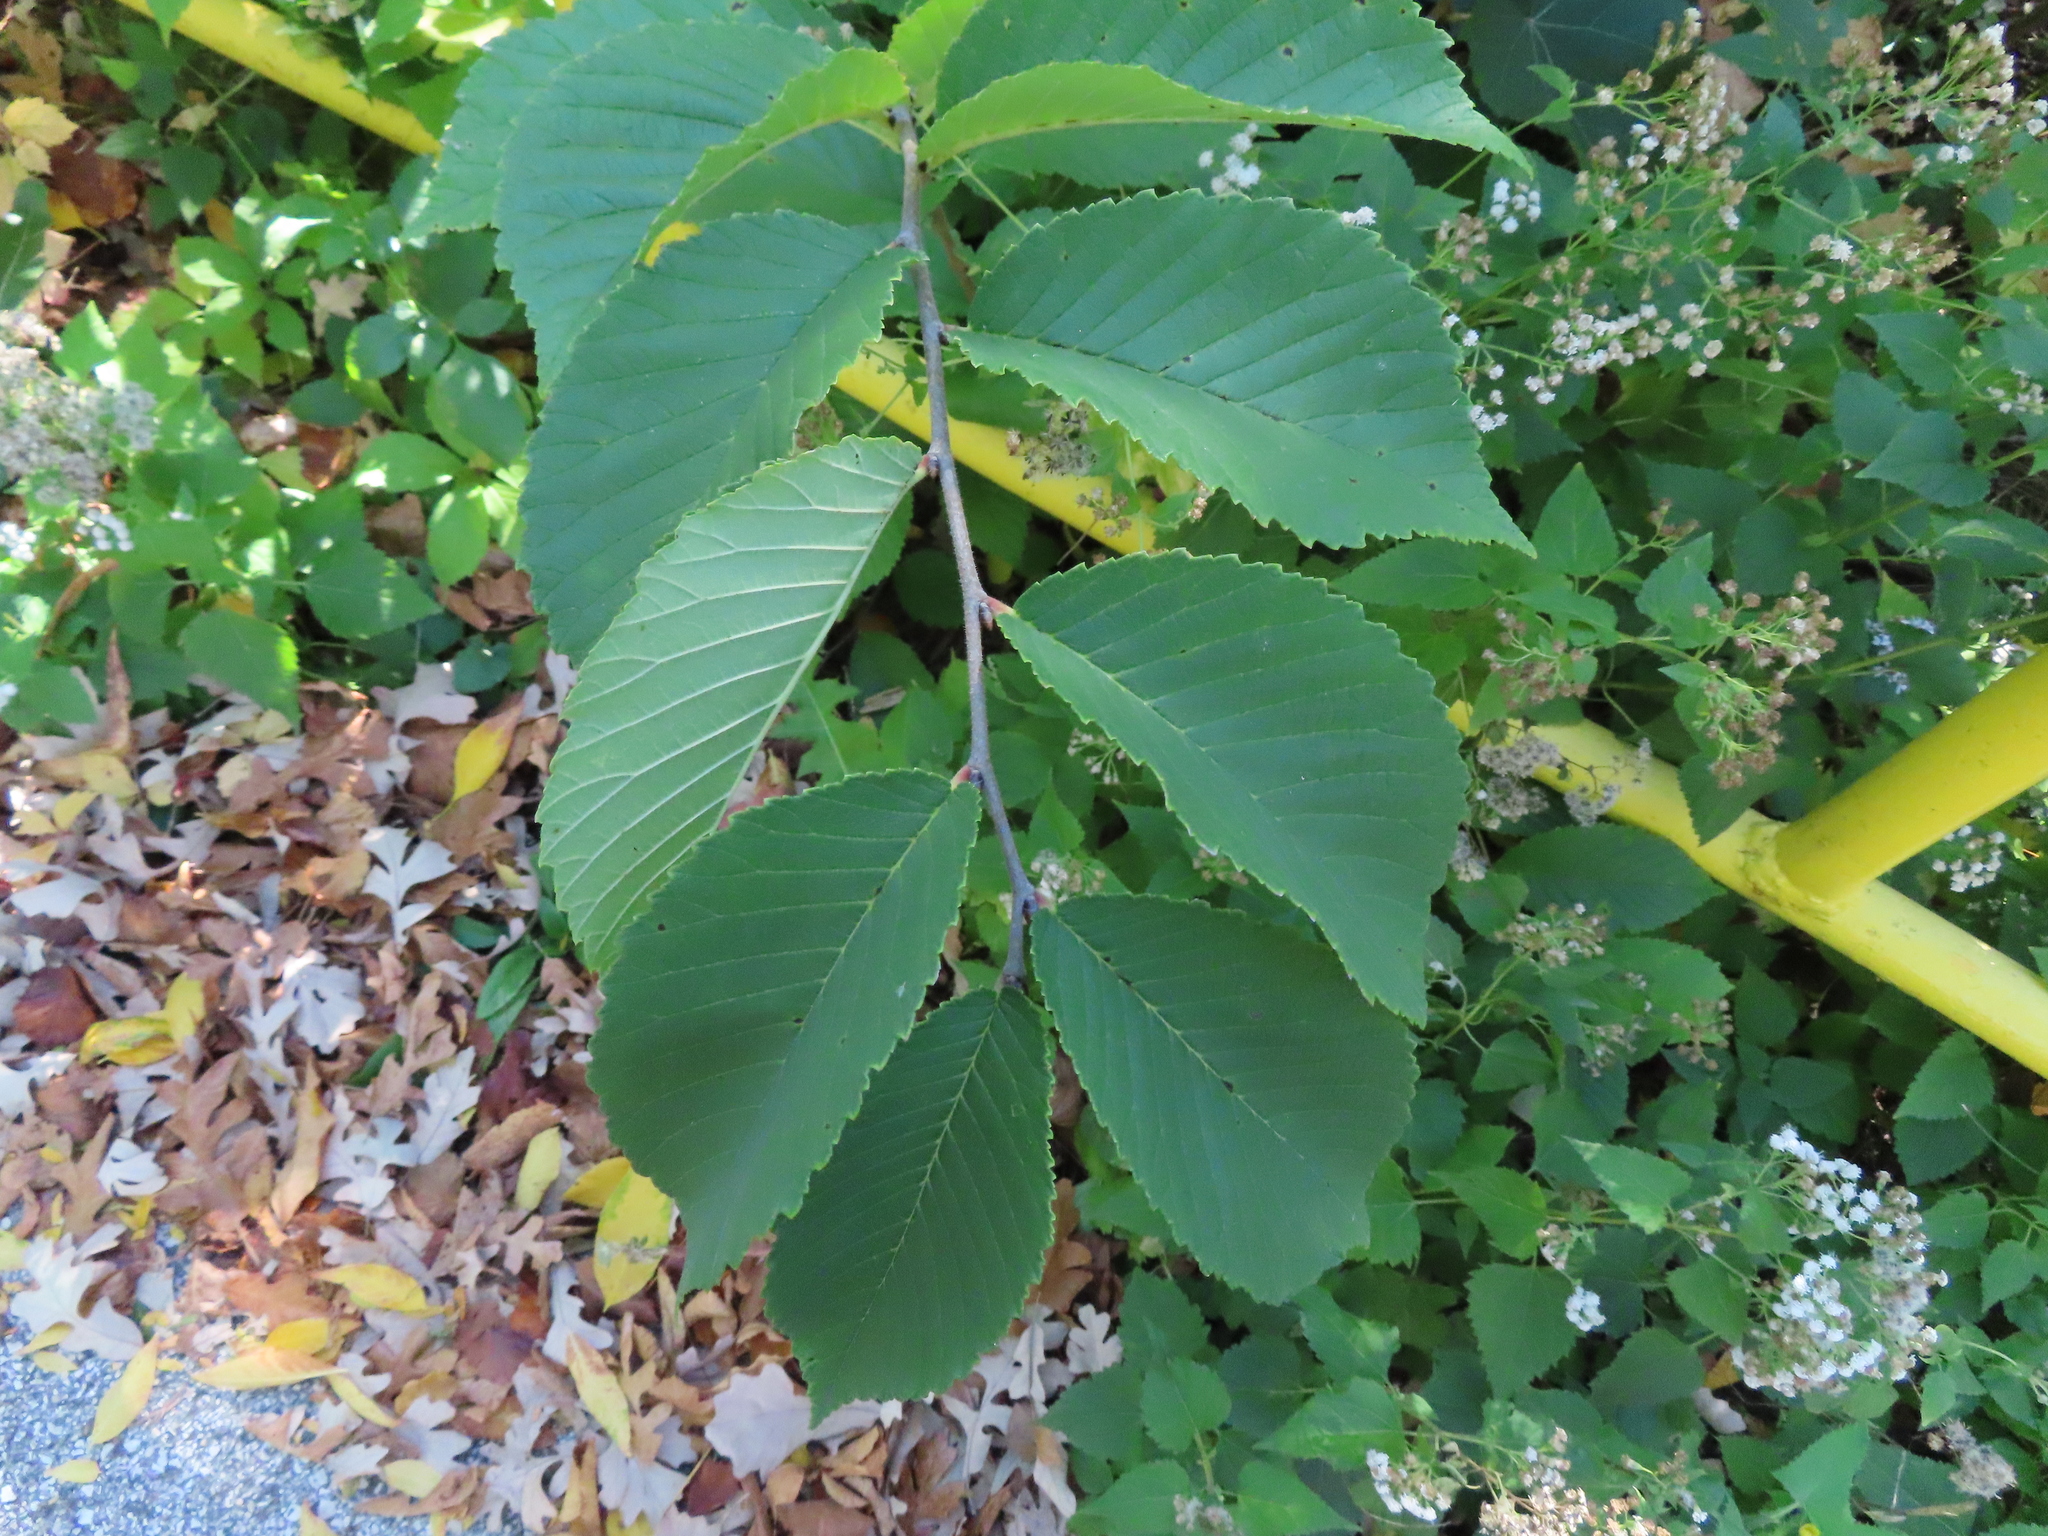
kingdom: Plantae
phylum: Tracheophyta
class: Magnoliopsida
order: Rosales
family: Ulmaceae
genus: Ulmus
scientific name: Ulmus rubra
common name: Slippery elm
